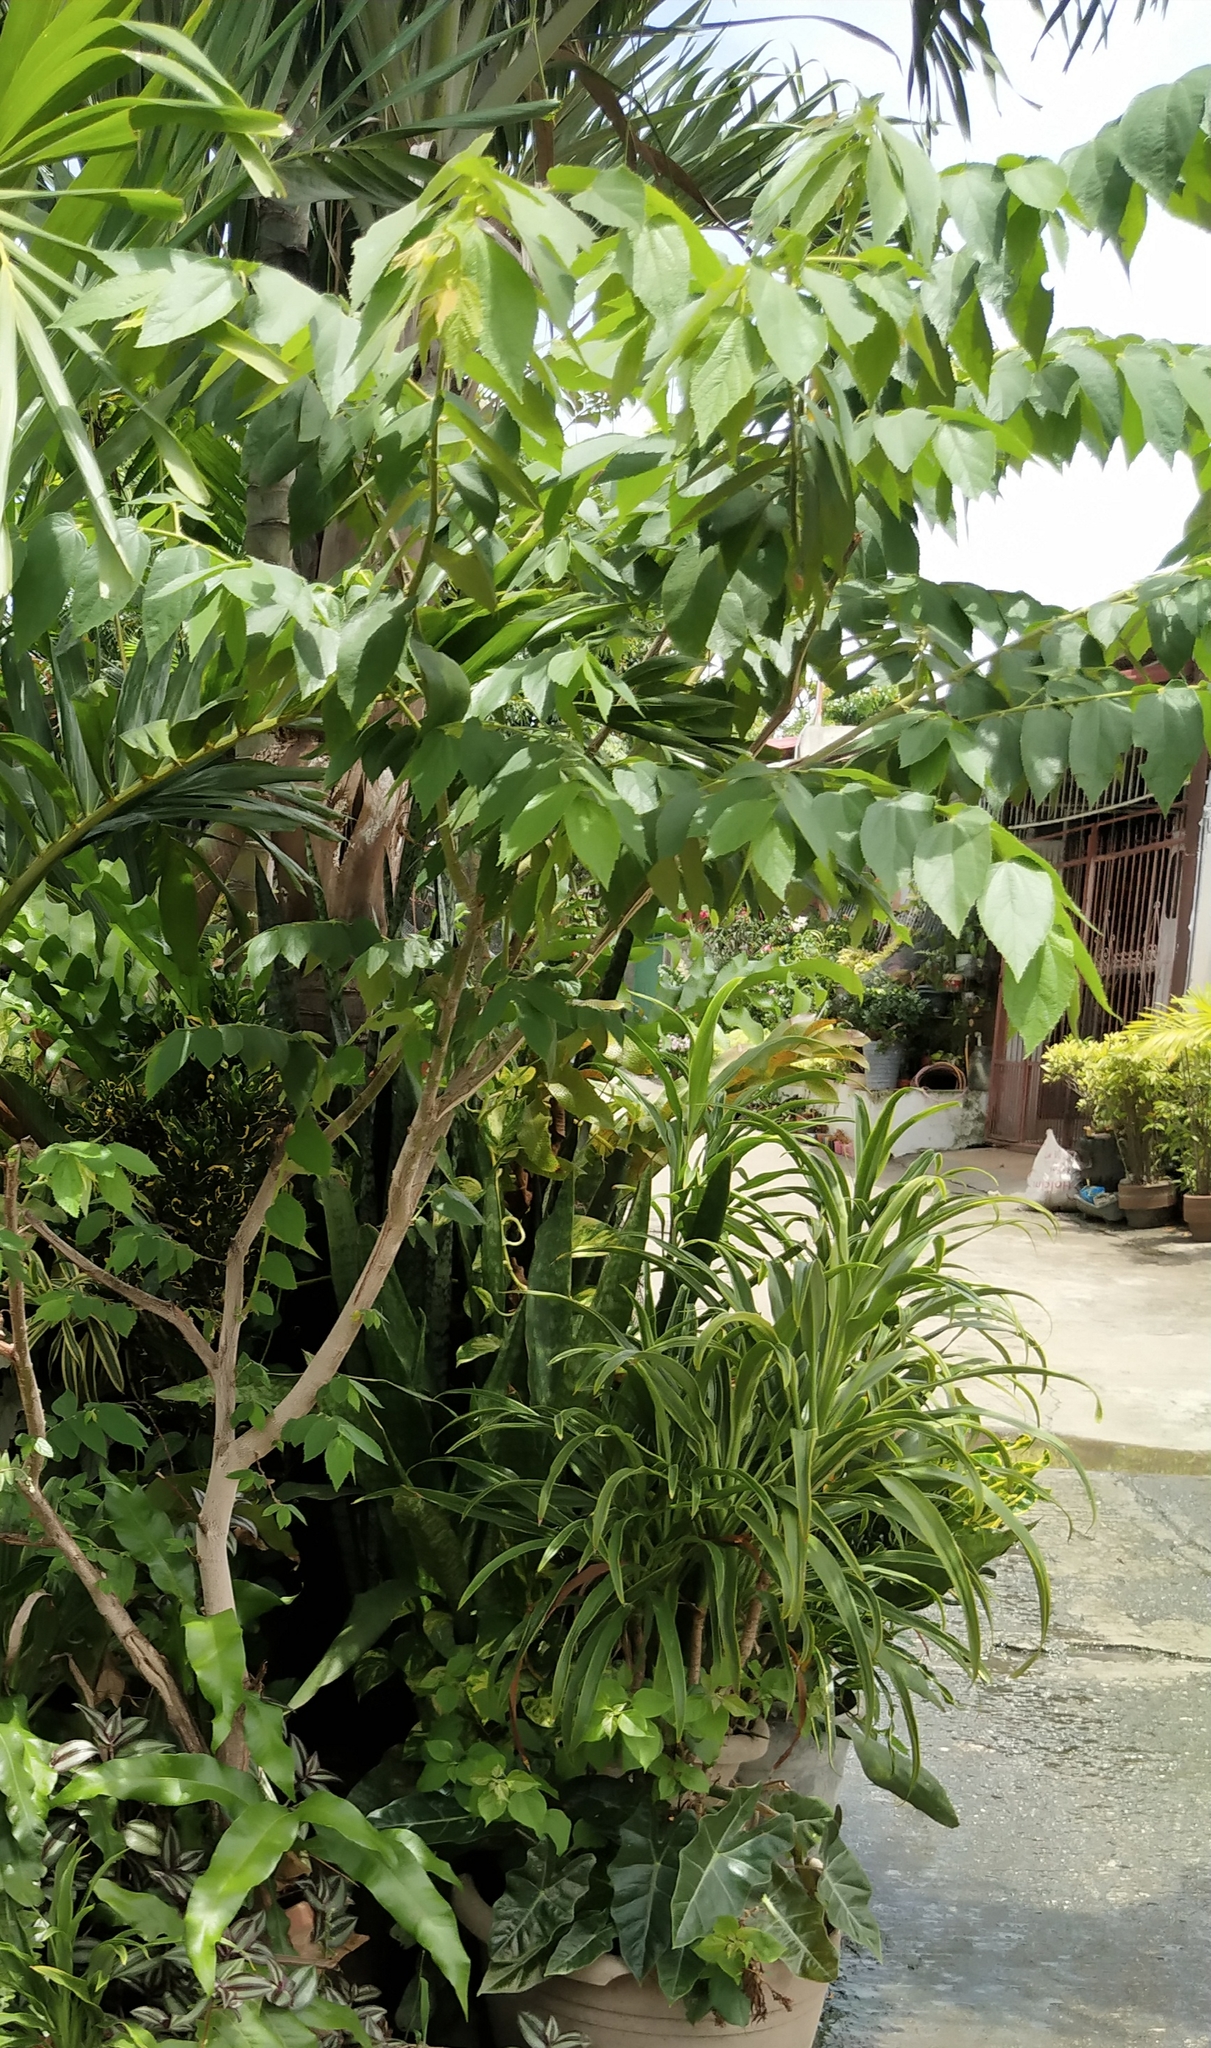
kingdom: Plantae
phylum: Tracheophyta
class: Magnoliopsida
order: Malvales
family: Muntingiaceae
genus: Muntingia
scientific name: Muntingia calabura
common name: Strawberrytree
